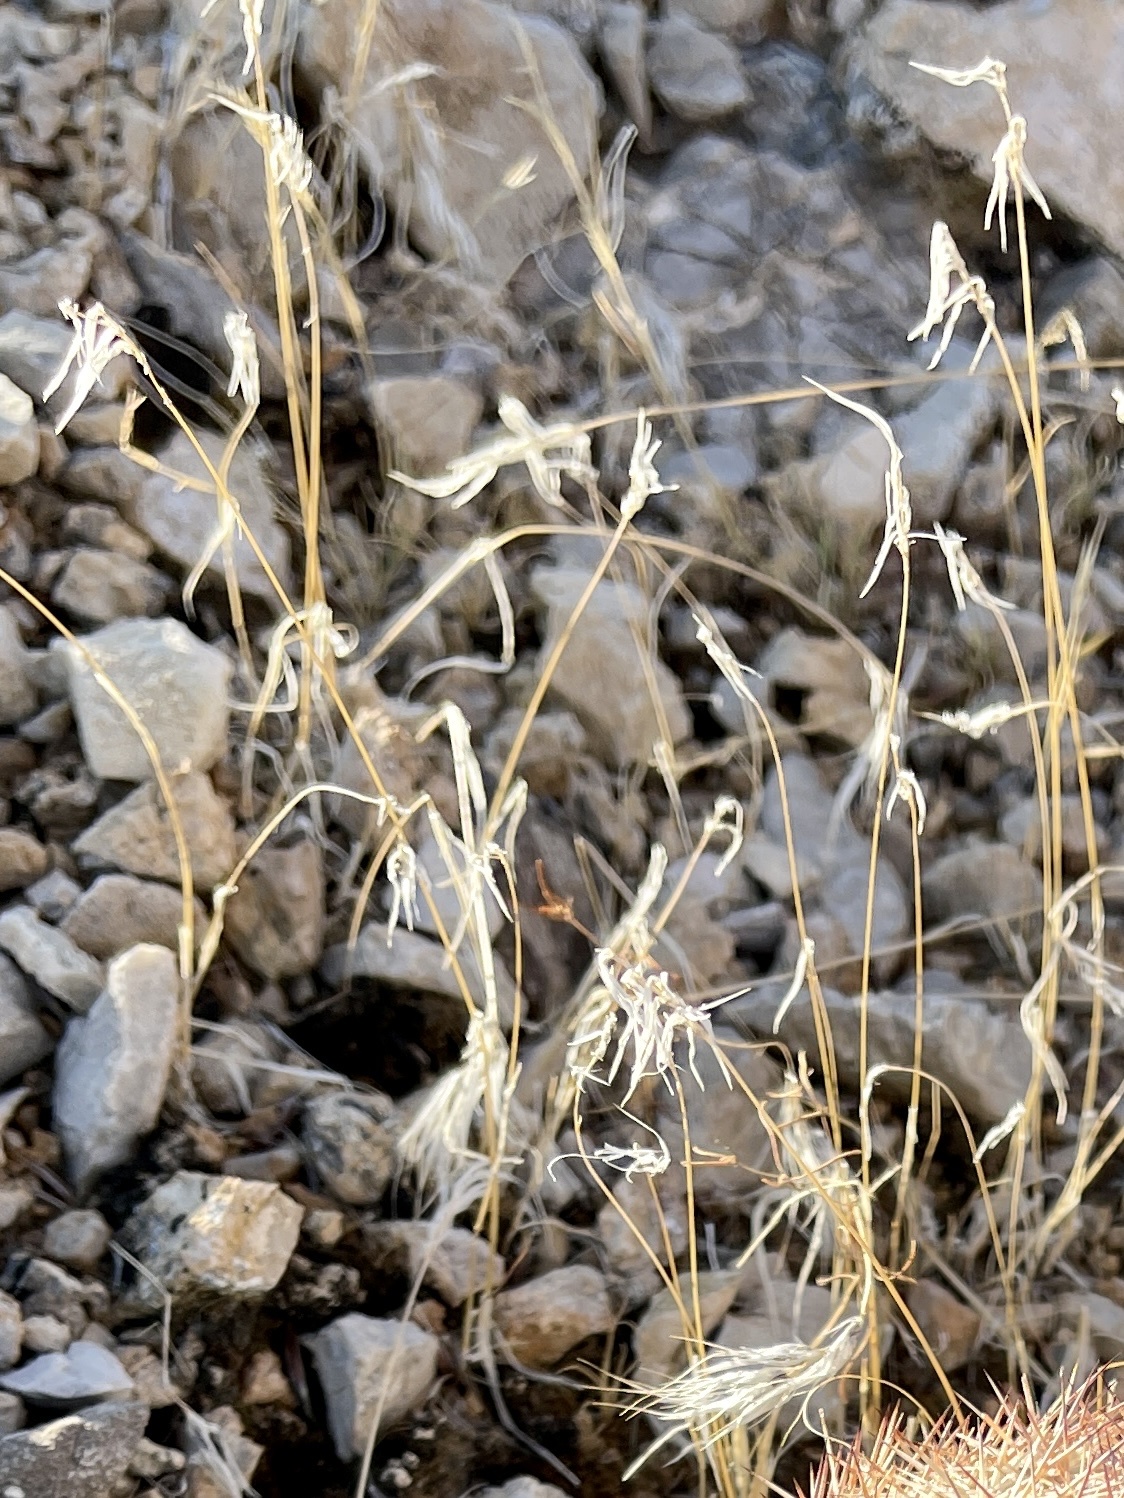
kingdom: Plantae
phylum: Tracheophyta
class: Liliopsida
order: Poales
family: Poaceae
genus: Bromus
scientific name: Bromus tectorum
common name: Cheatgrass
